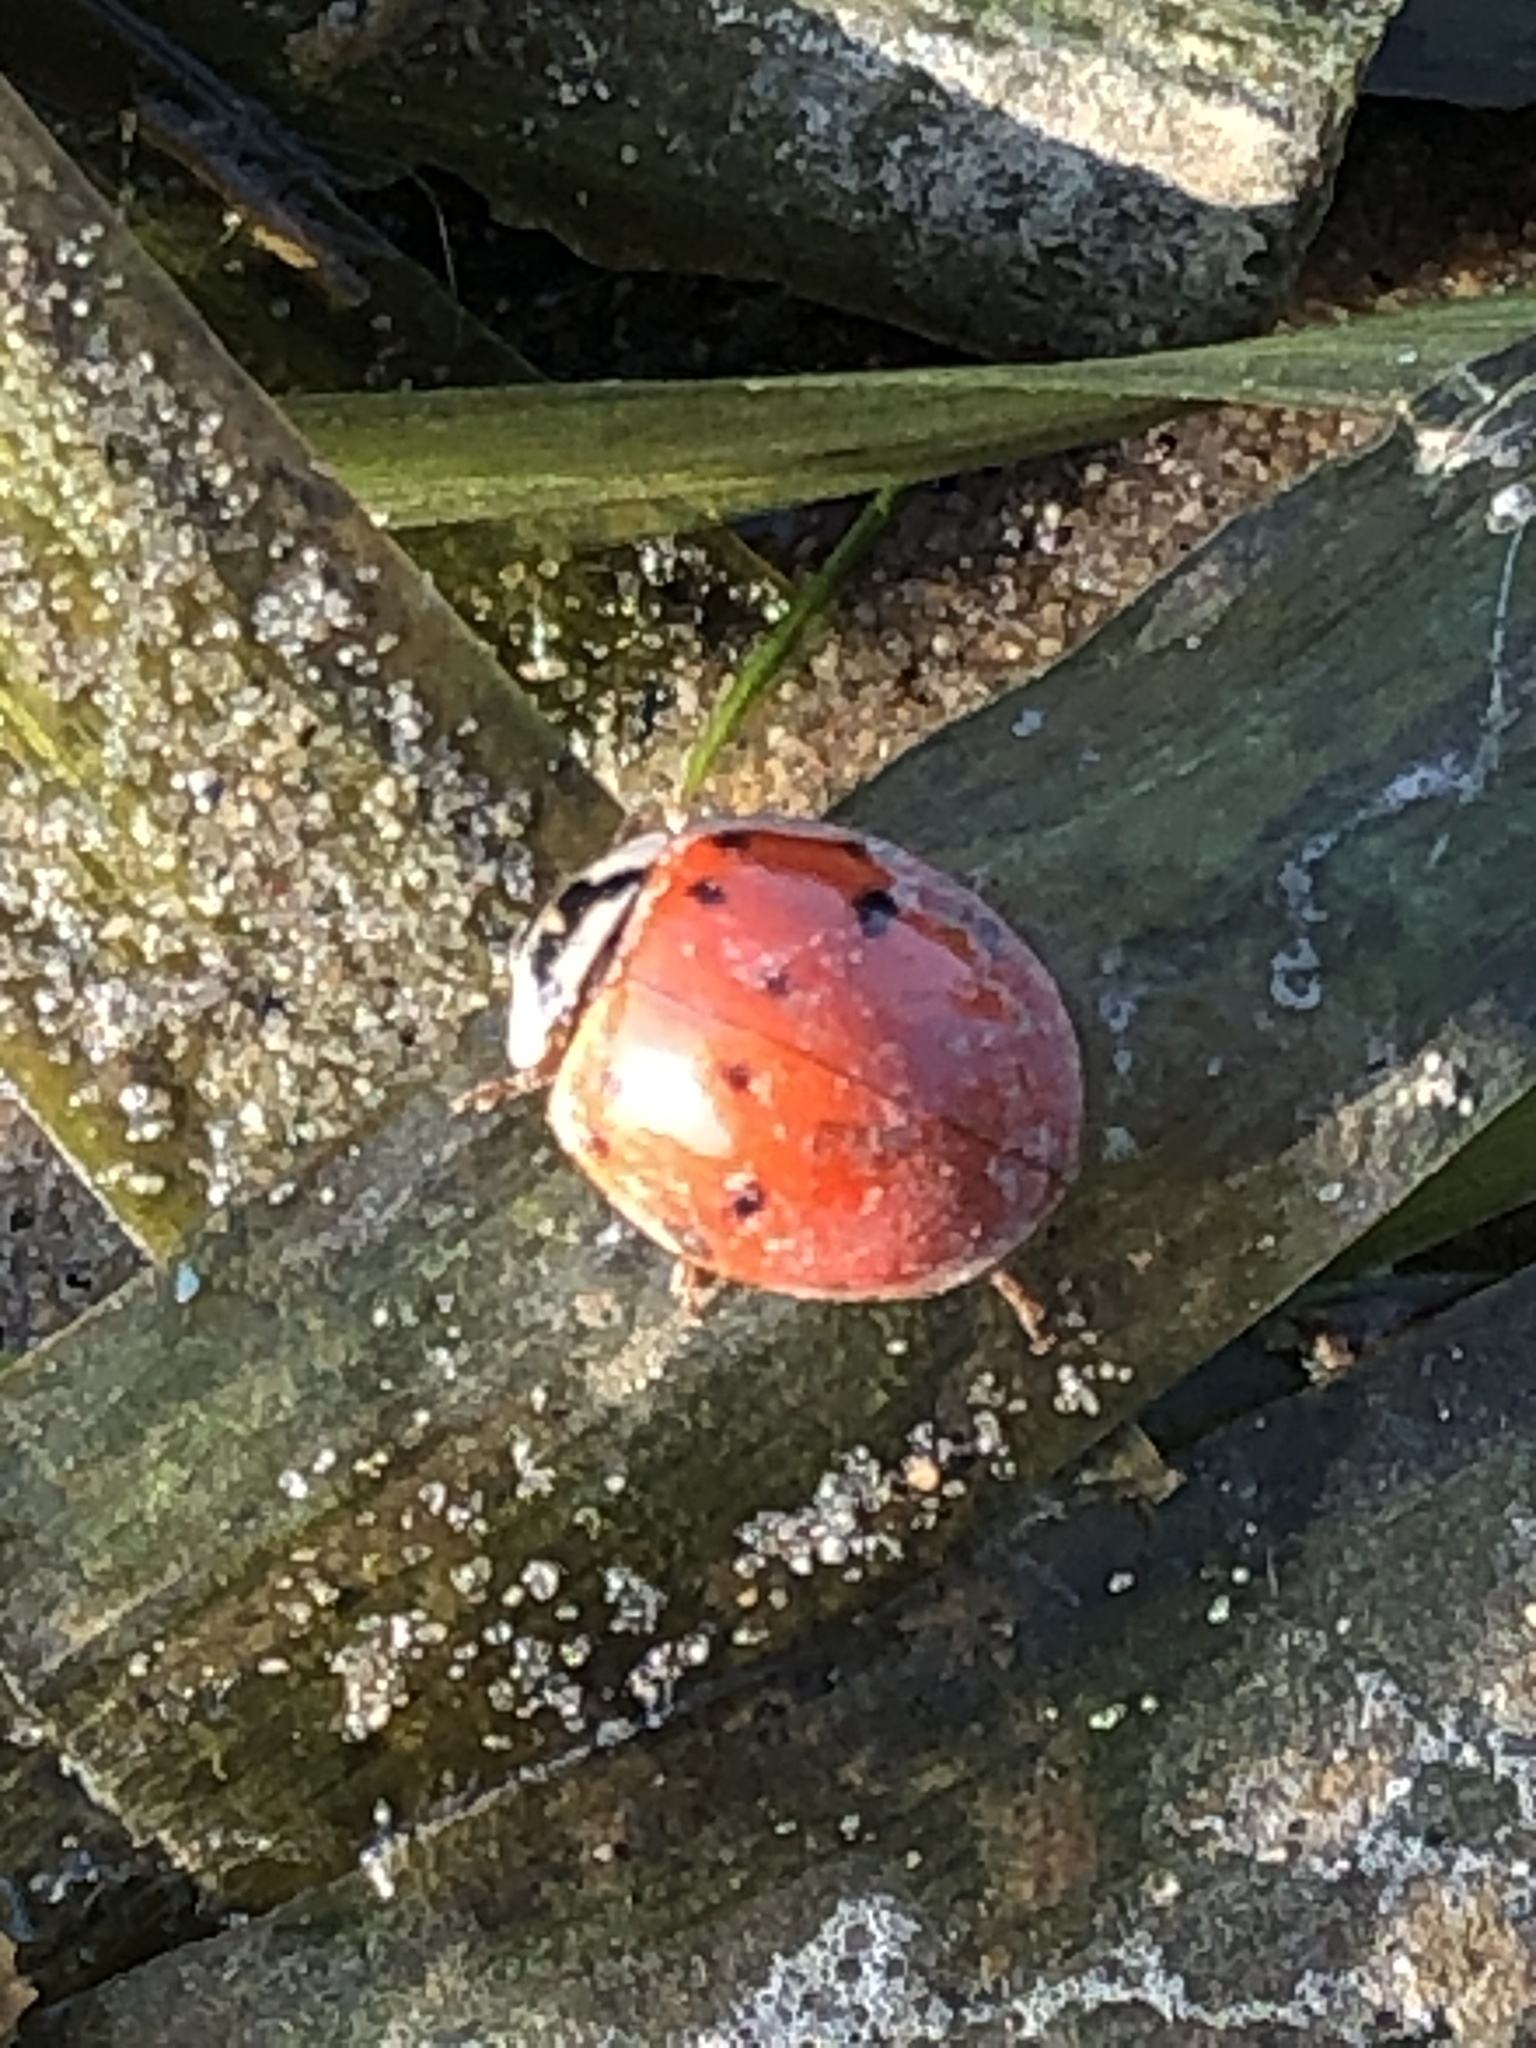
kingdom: Animalia
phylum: Arthropoda
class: Insecta
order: Coleoptera
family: Coccinellidae
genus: Harmonia
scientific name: Harmonia axyridis
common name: Harlequin ladybird
